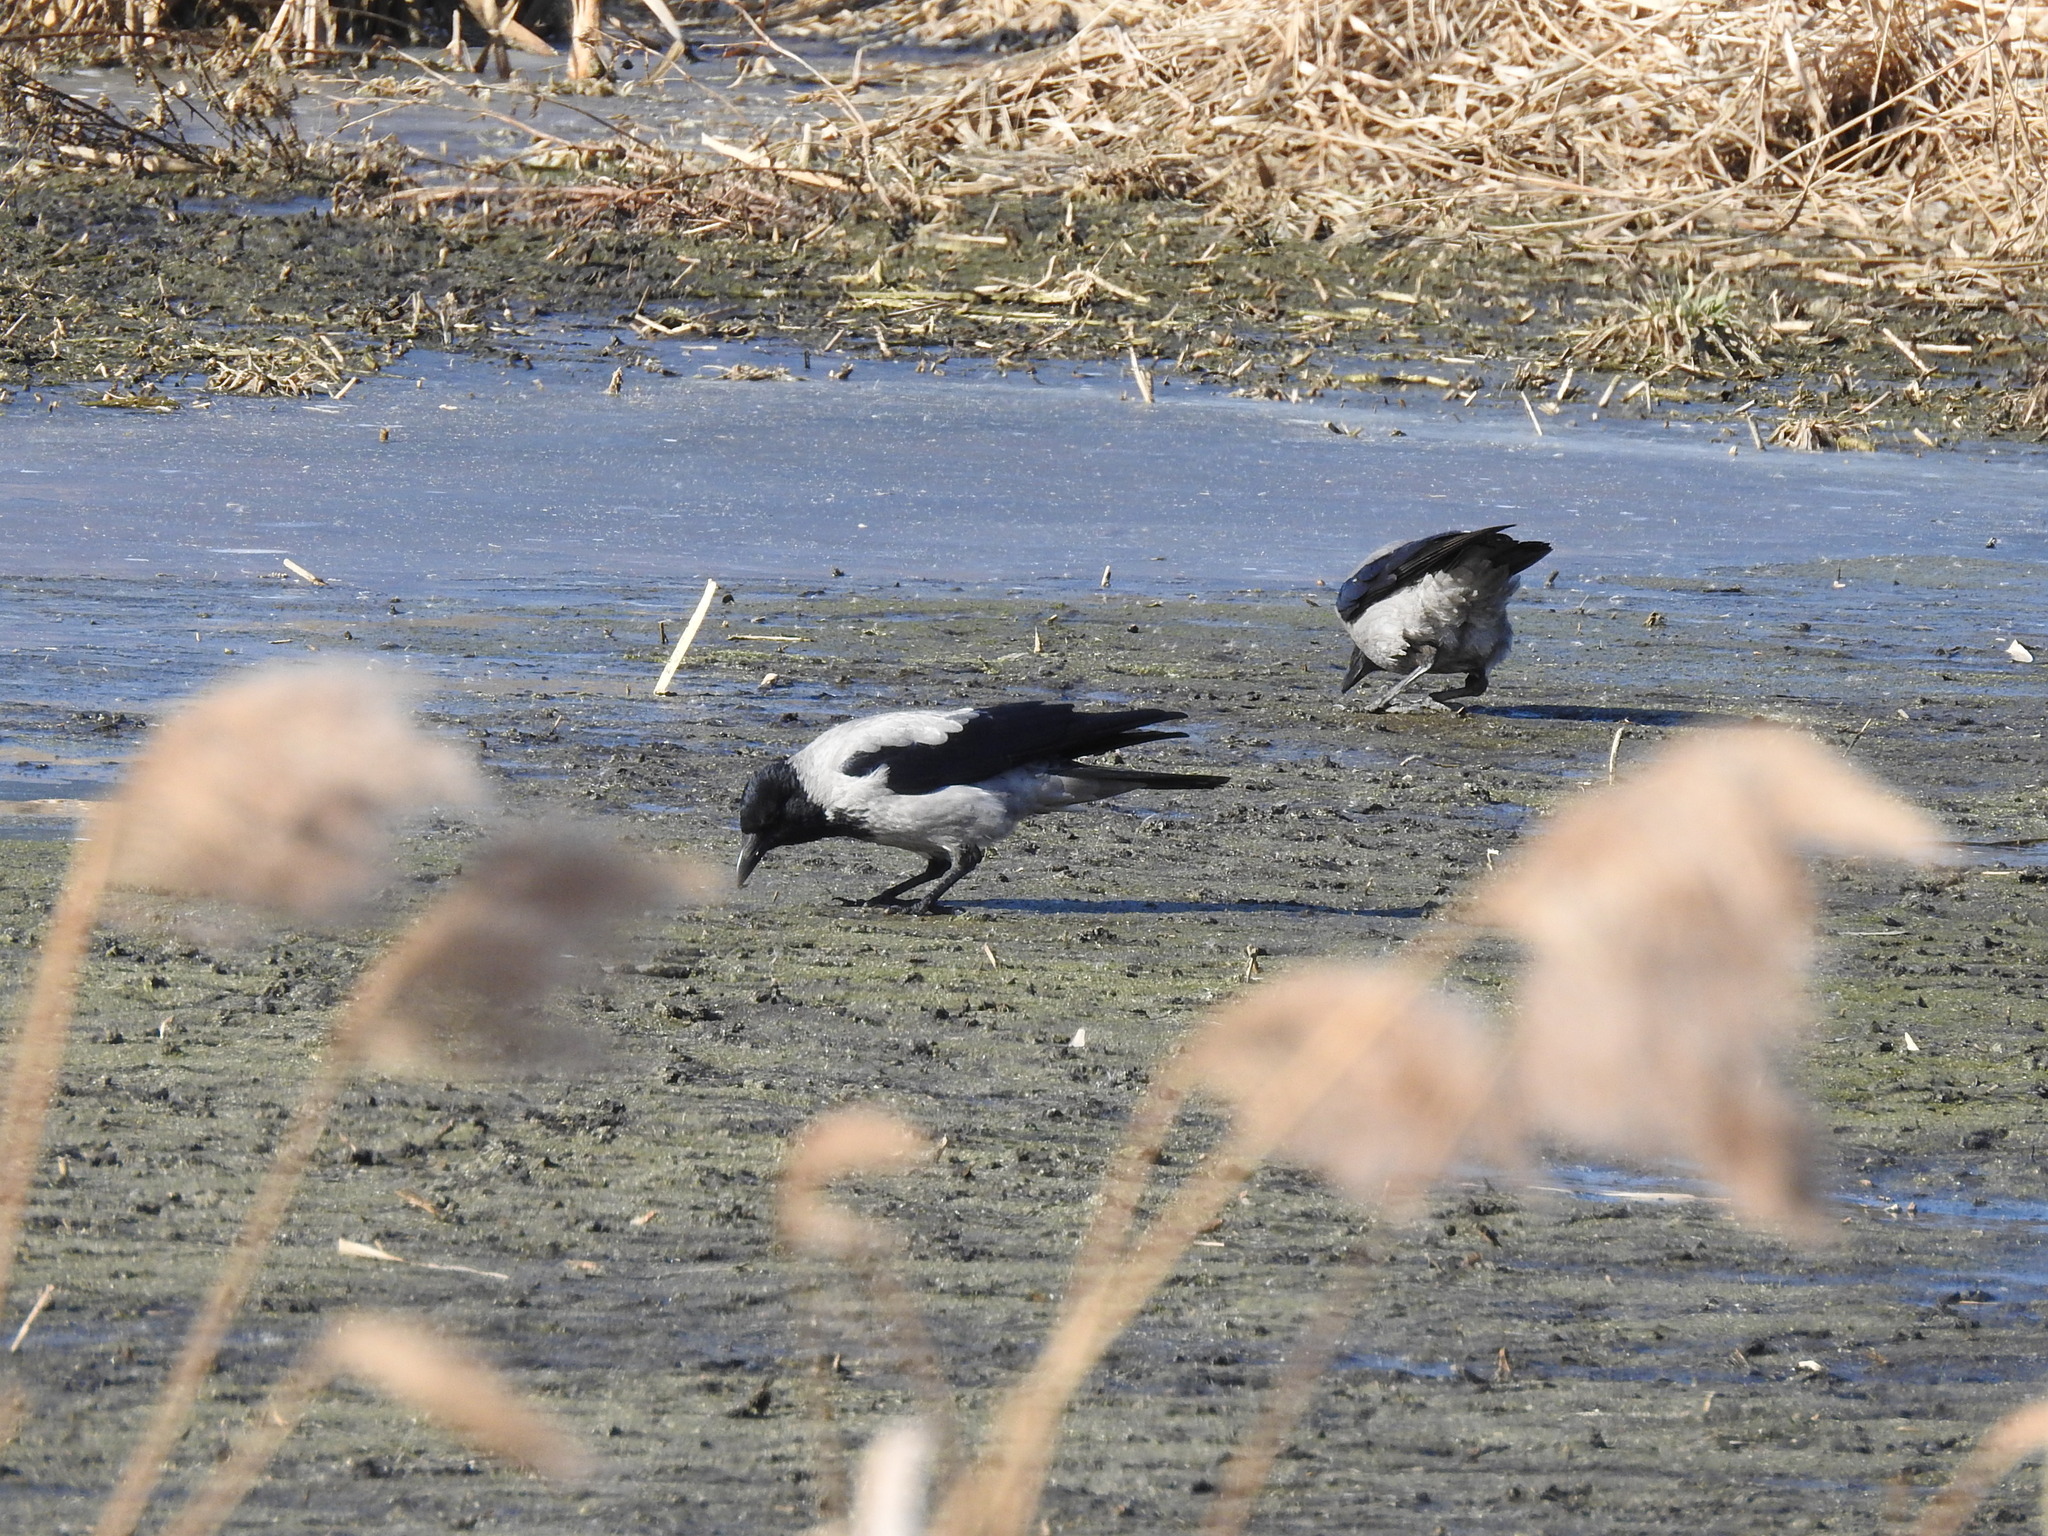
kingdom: Animalia
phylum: Chordata
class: Aves
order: Passeriformes
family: Corvidae
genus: Corvus
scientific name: Corvus cornix
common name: Hooded crow
